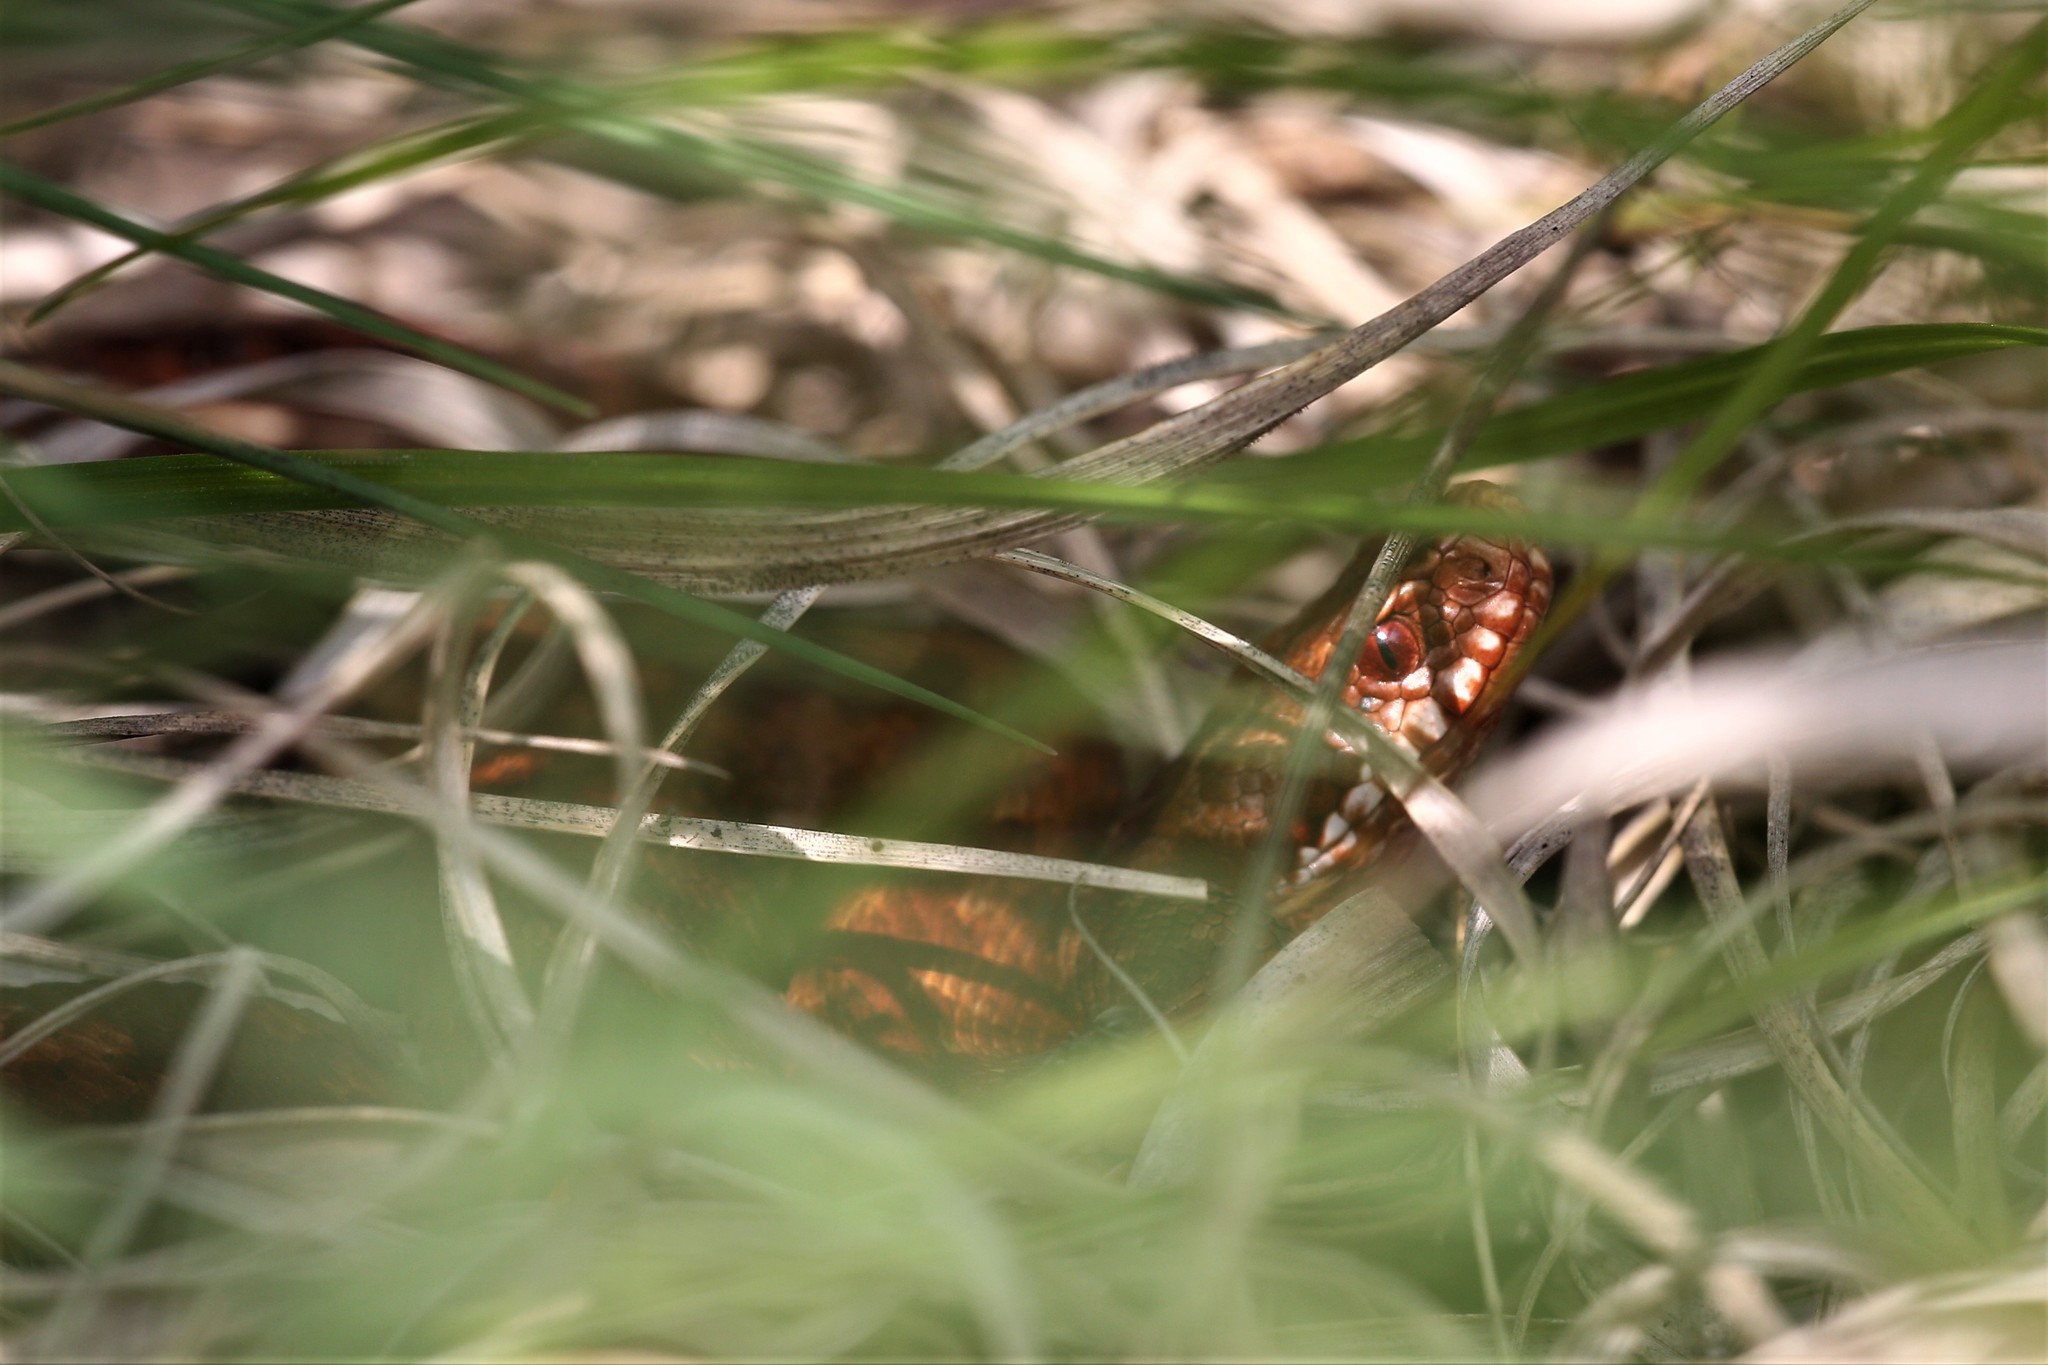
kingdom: Animalia
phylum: Chordata
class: Squamata
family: Viperidae
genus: Vipera
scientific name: Vipera berus
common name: Adder
